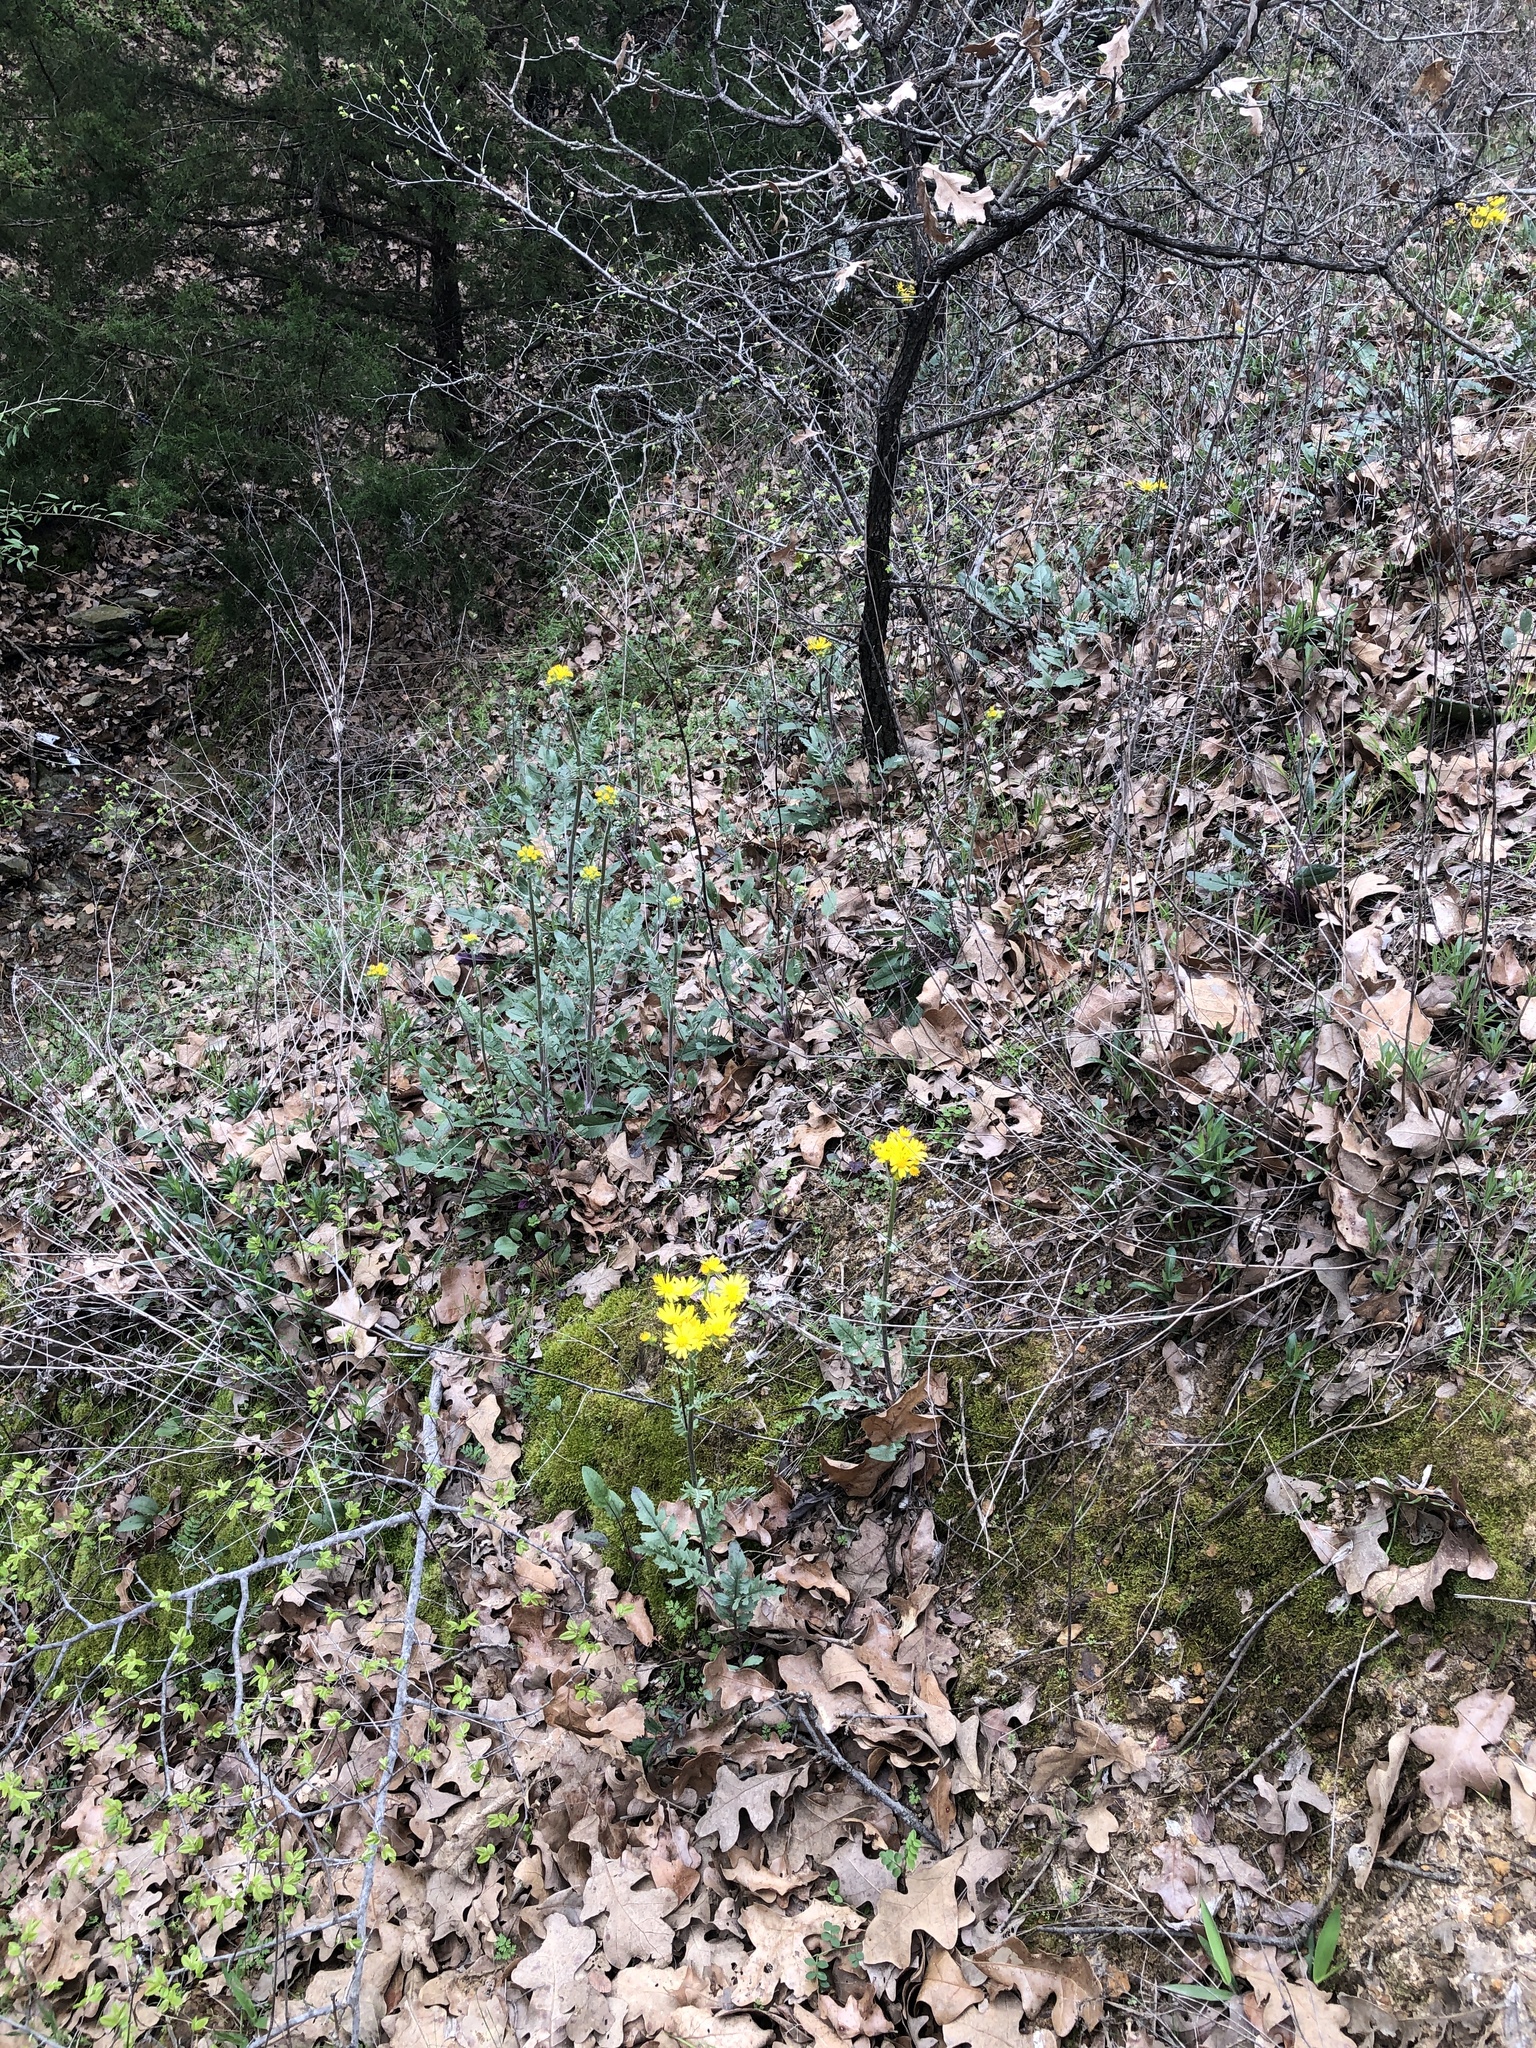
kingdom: Plantae
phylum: Tracheophyta
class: Magnoliopsida
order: Asterales
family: Asteraceae
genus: Packera
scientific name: Packera plattensis
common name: Prairie groundsel
